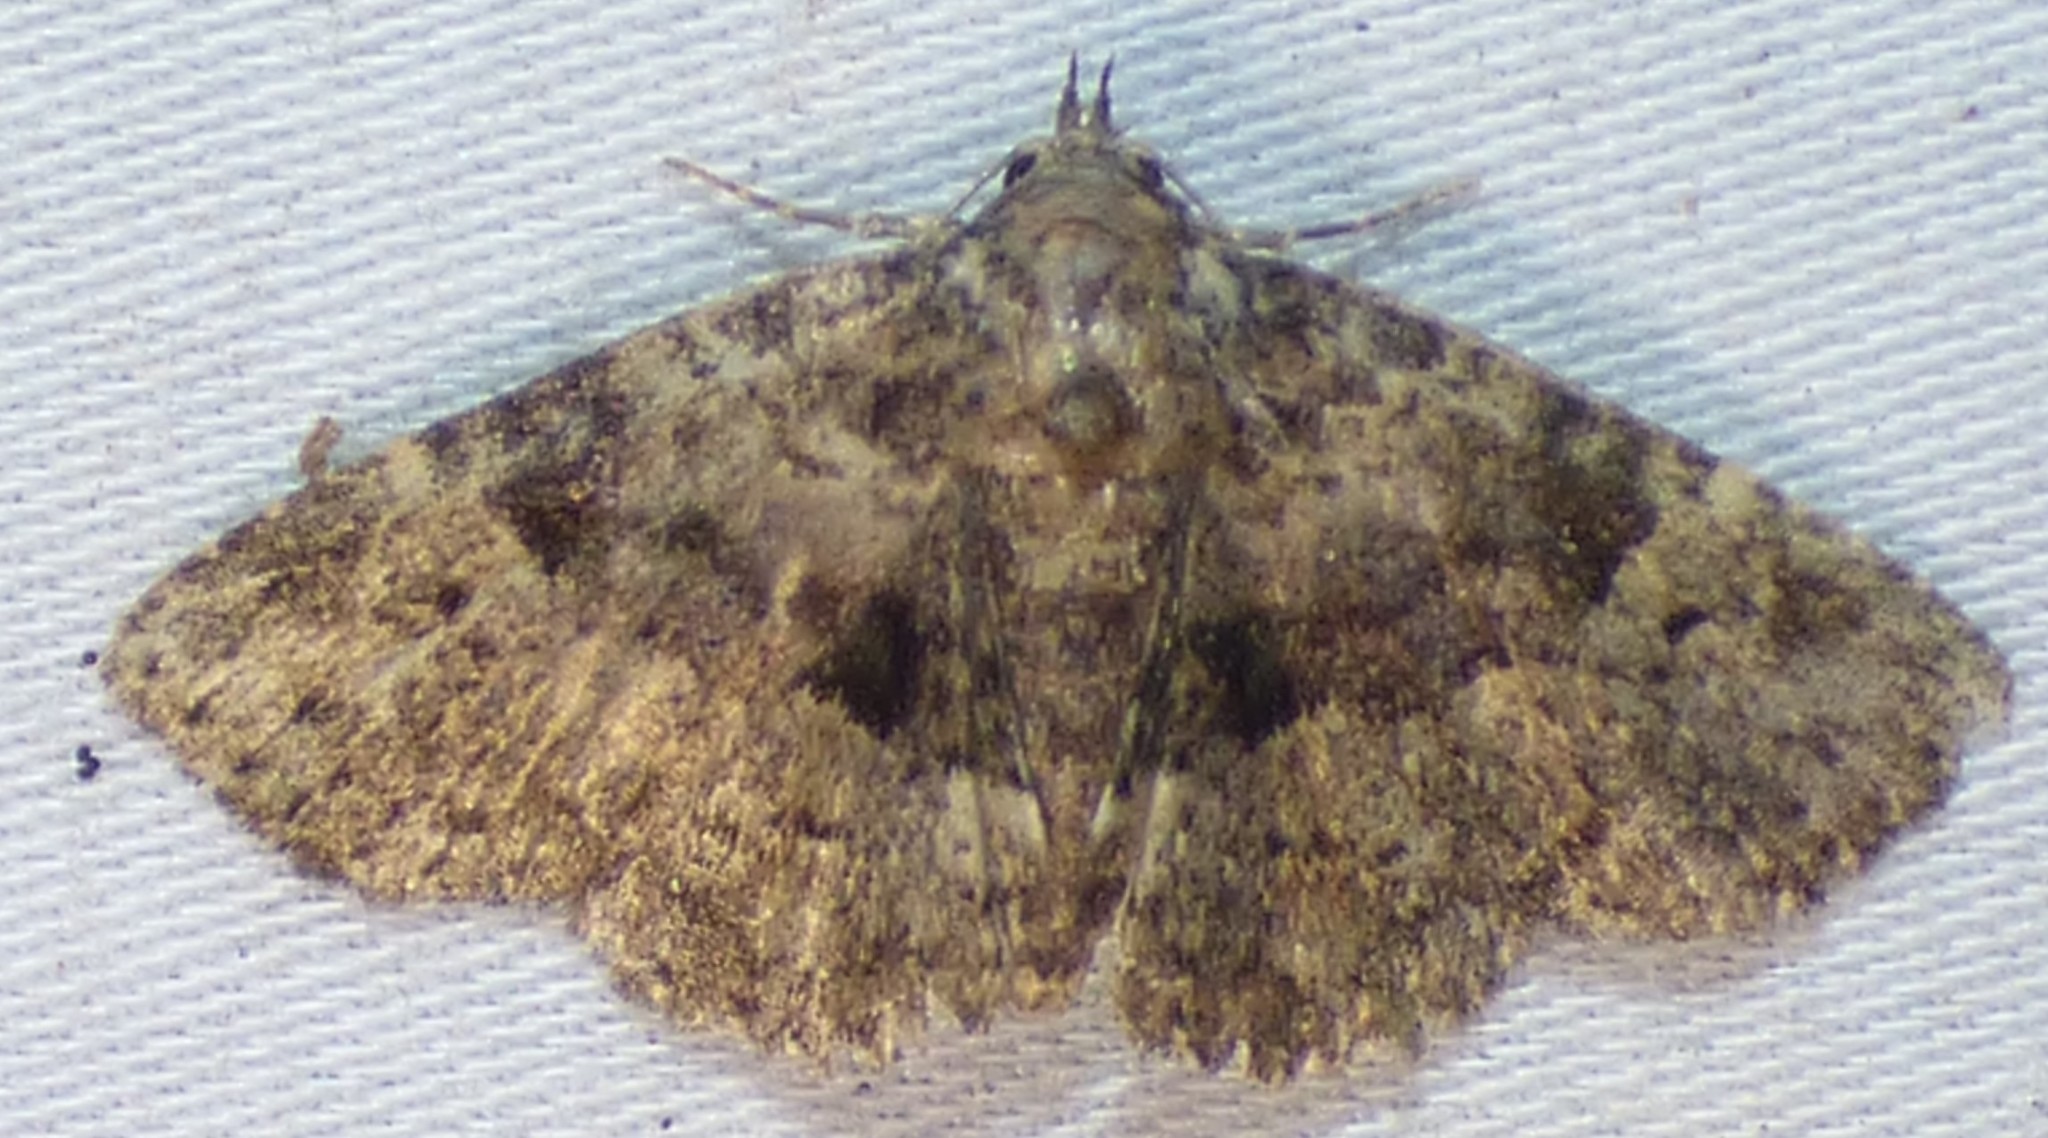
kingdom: Animalia
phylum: Arthropoda
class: Insecta
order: Lepidoptera
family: Erebidae
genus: Metalectra
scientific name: Metalectra discalis
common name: Common fungus moth
